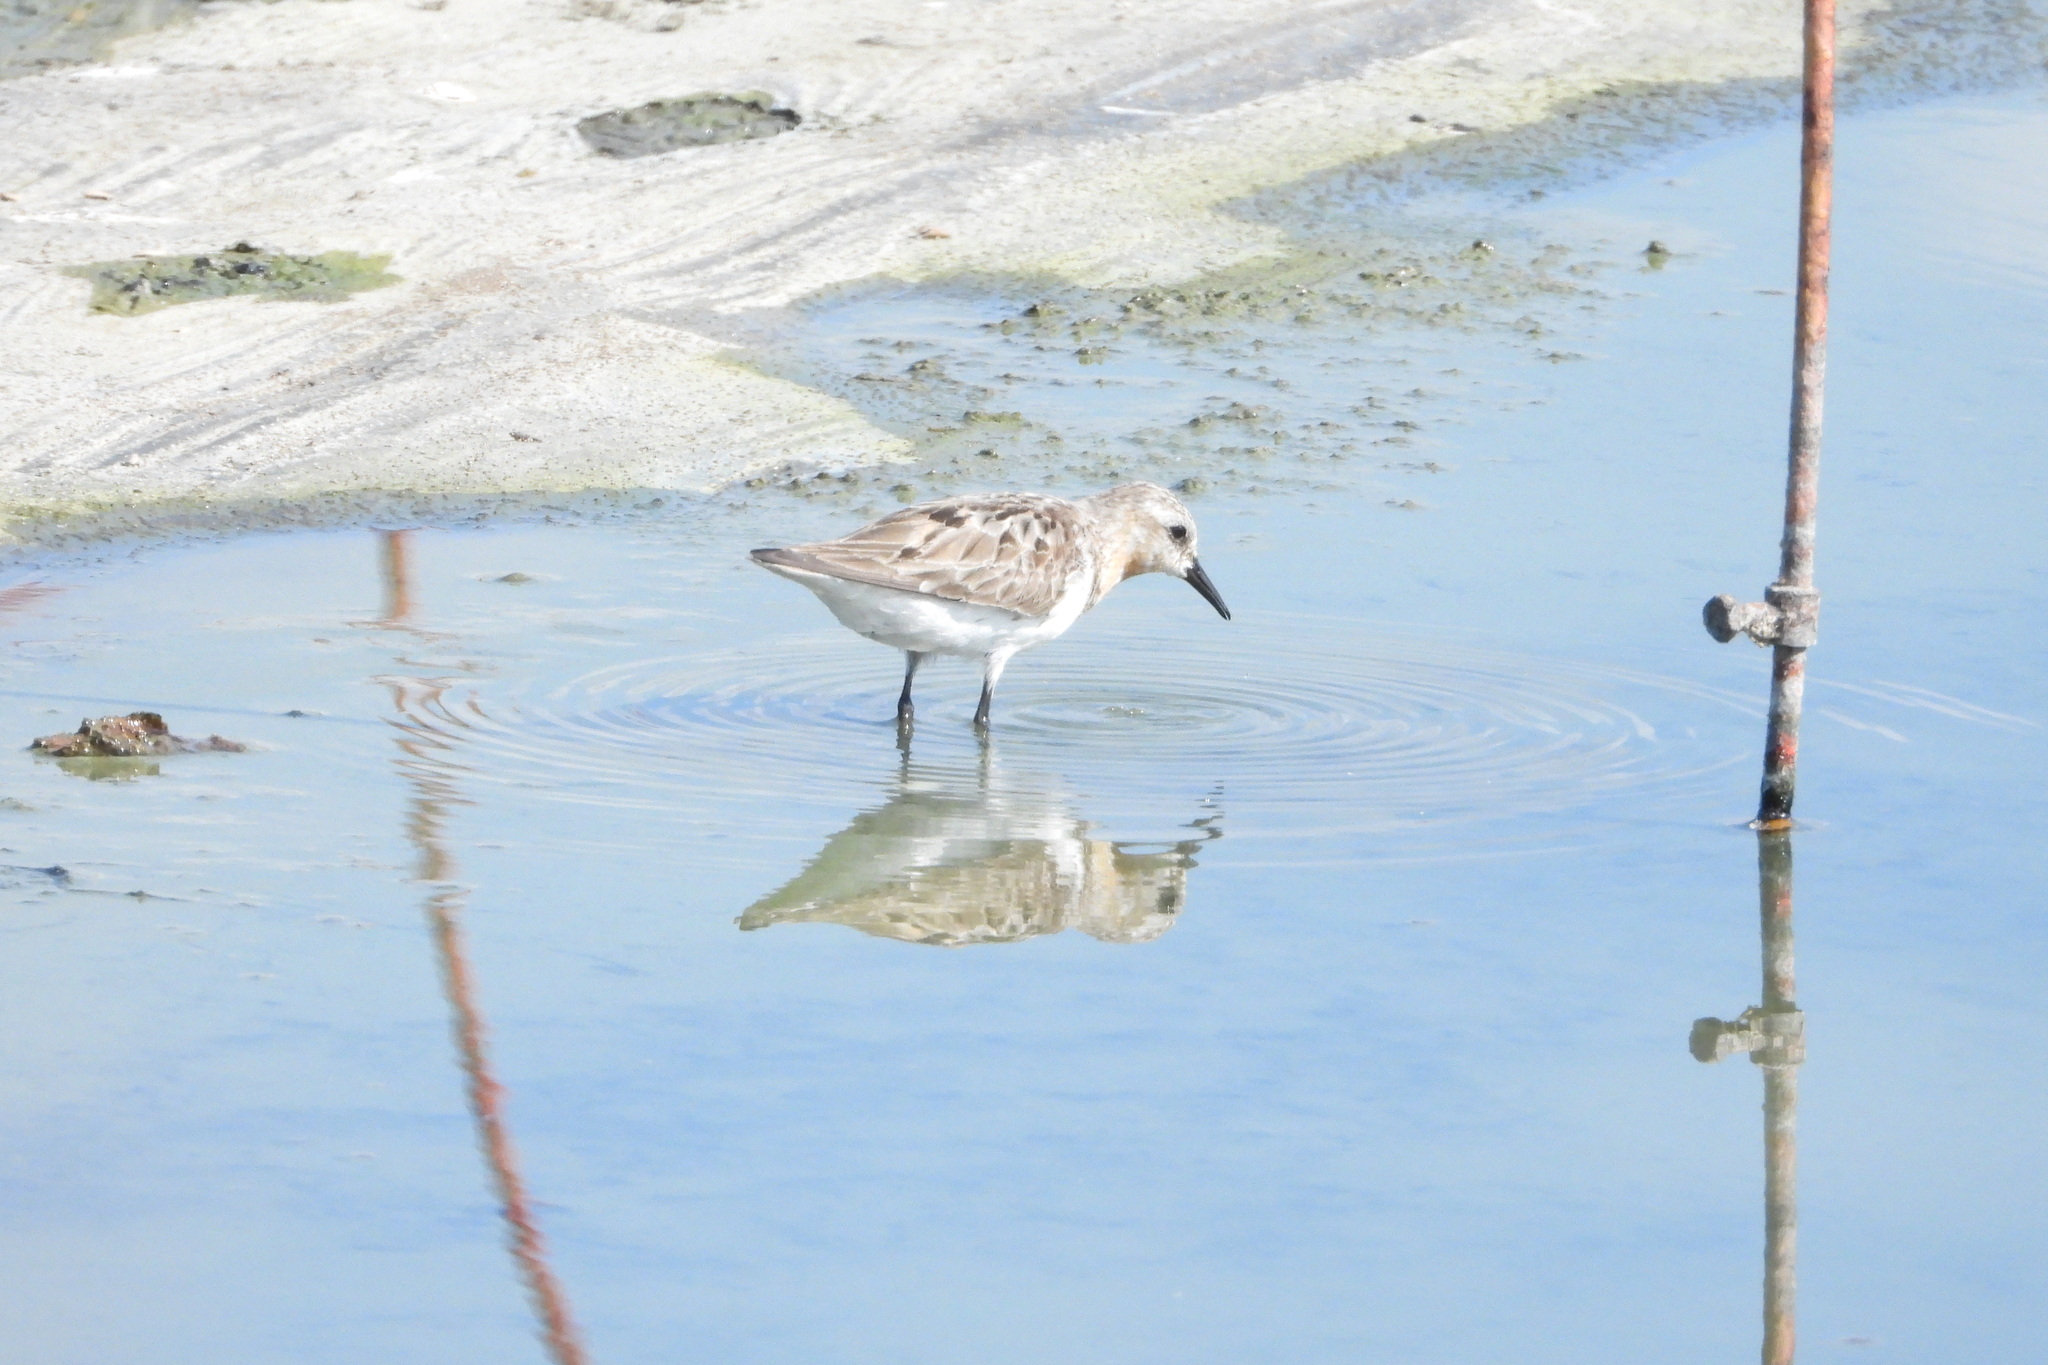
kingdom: Animalia
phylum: Chordata
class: Aves
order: Charadriiformes
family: Scolopacidae
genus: Calidris
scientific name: Calidris ruficollis
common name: Red-necked stint
